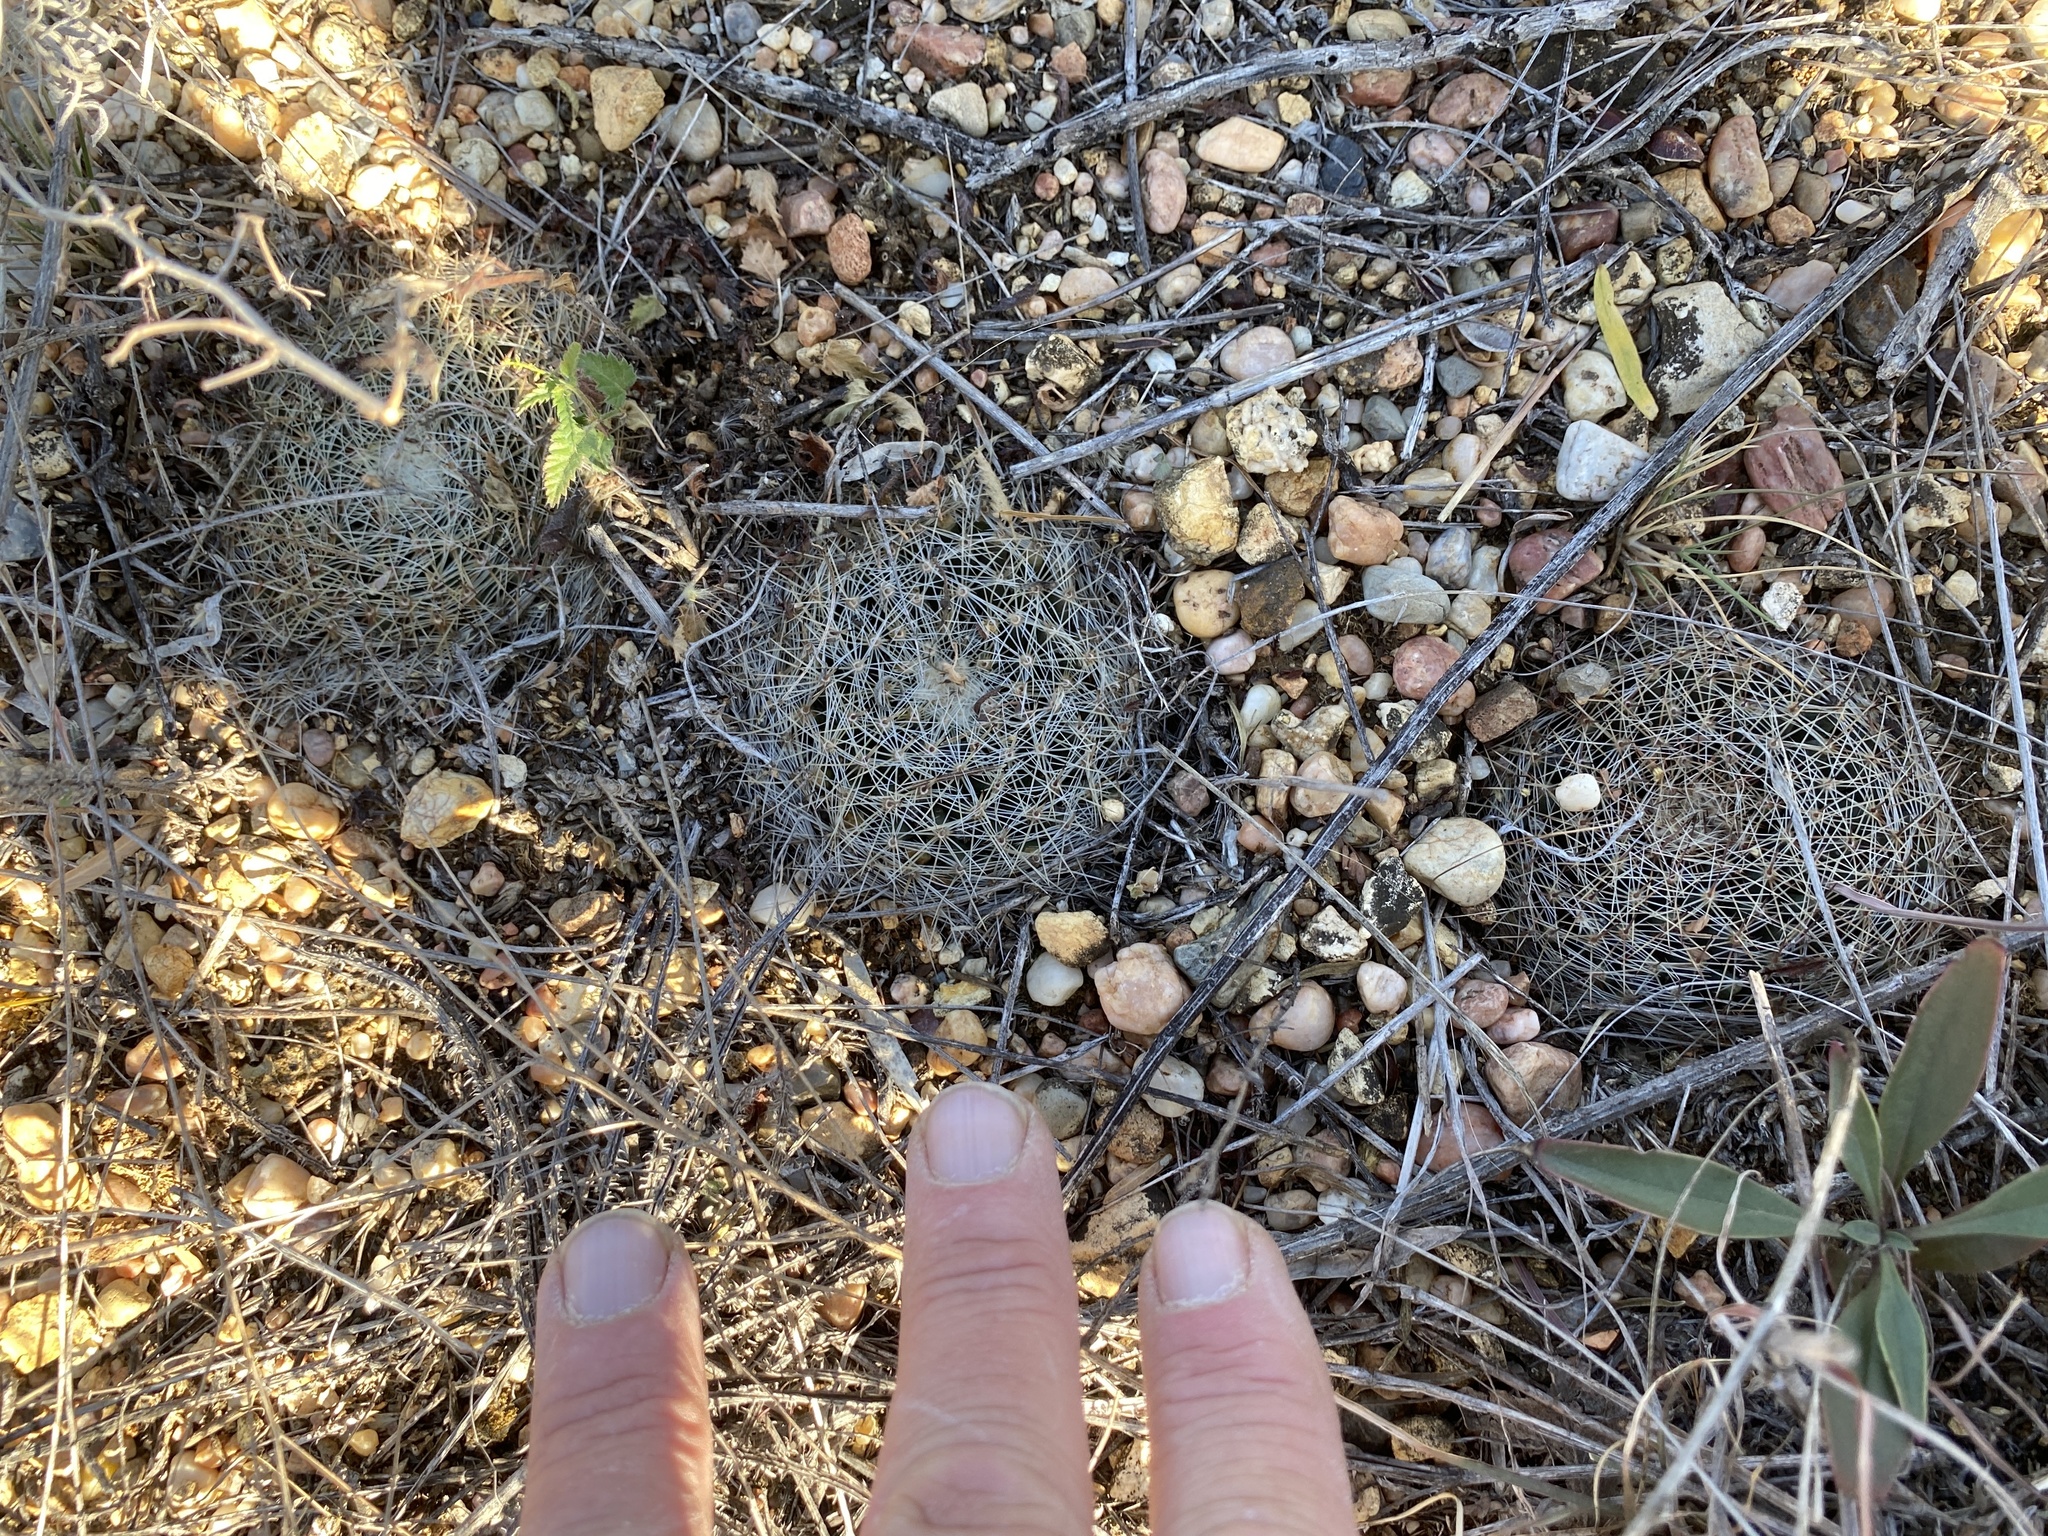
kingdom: Plantae
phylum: Tracheophyta
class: Magnoliopsida
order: Caryophyllales
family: Cactaceae
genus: Mammillaria
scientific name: Mammillaria heyderi
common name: Little nipple cactus
